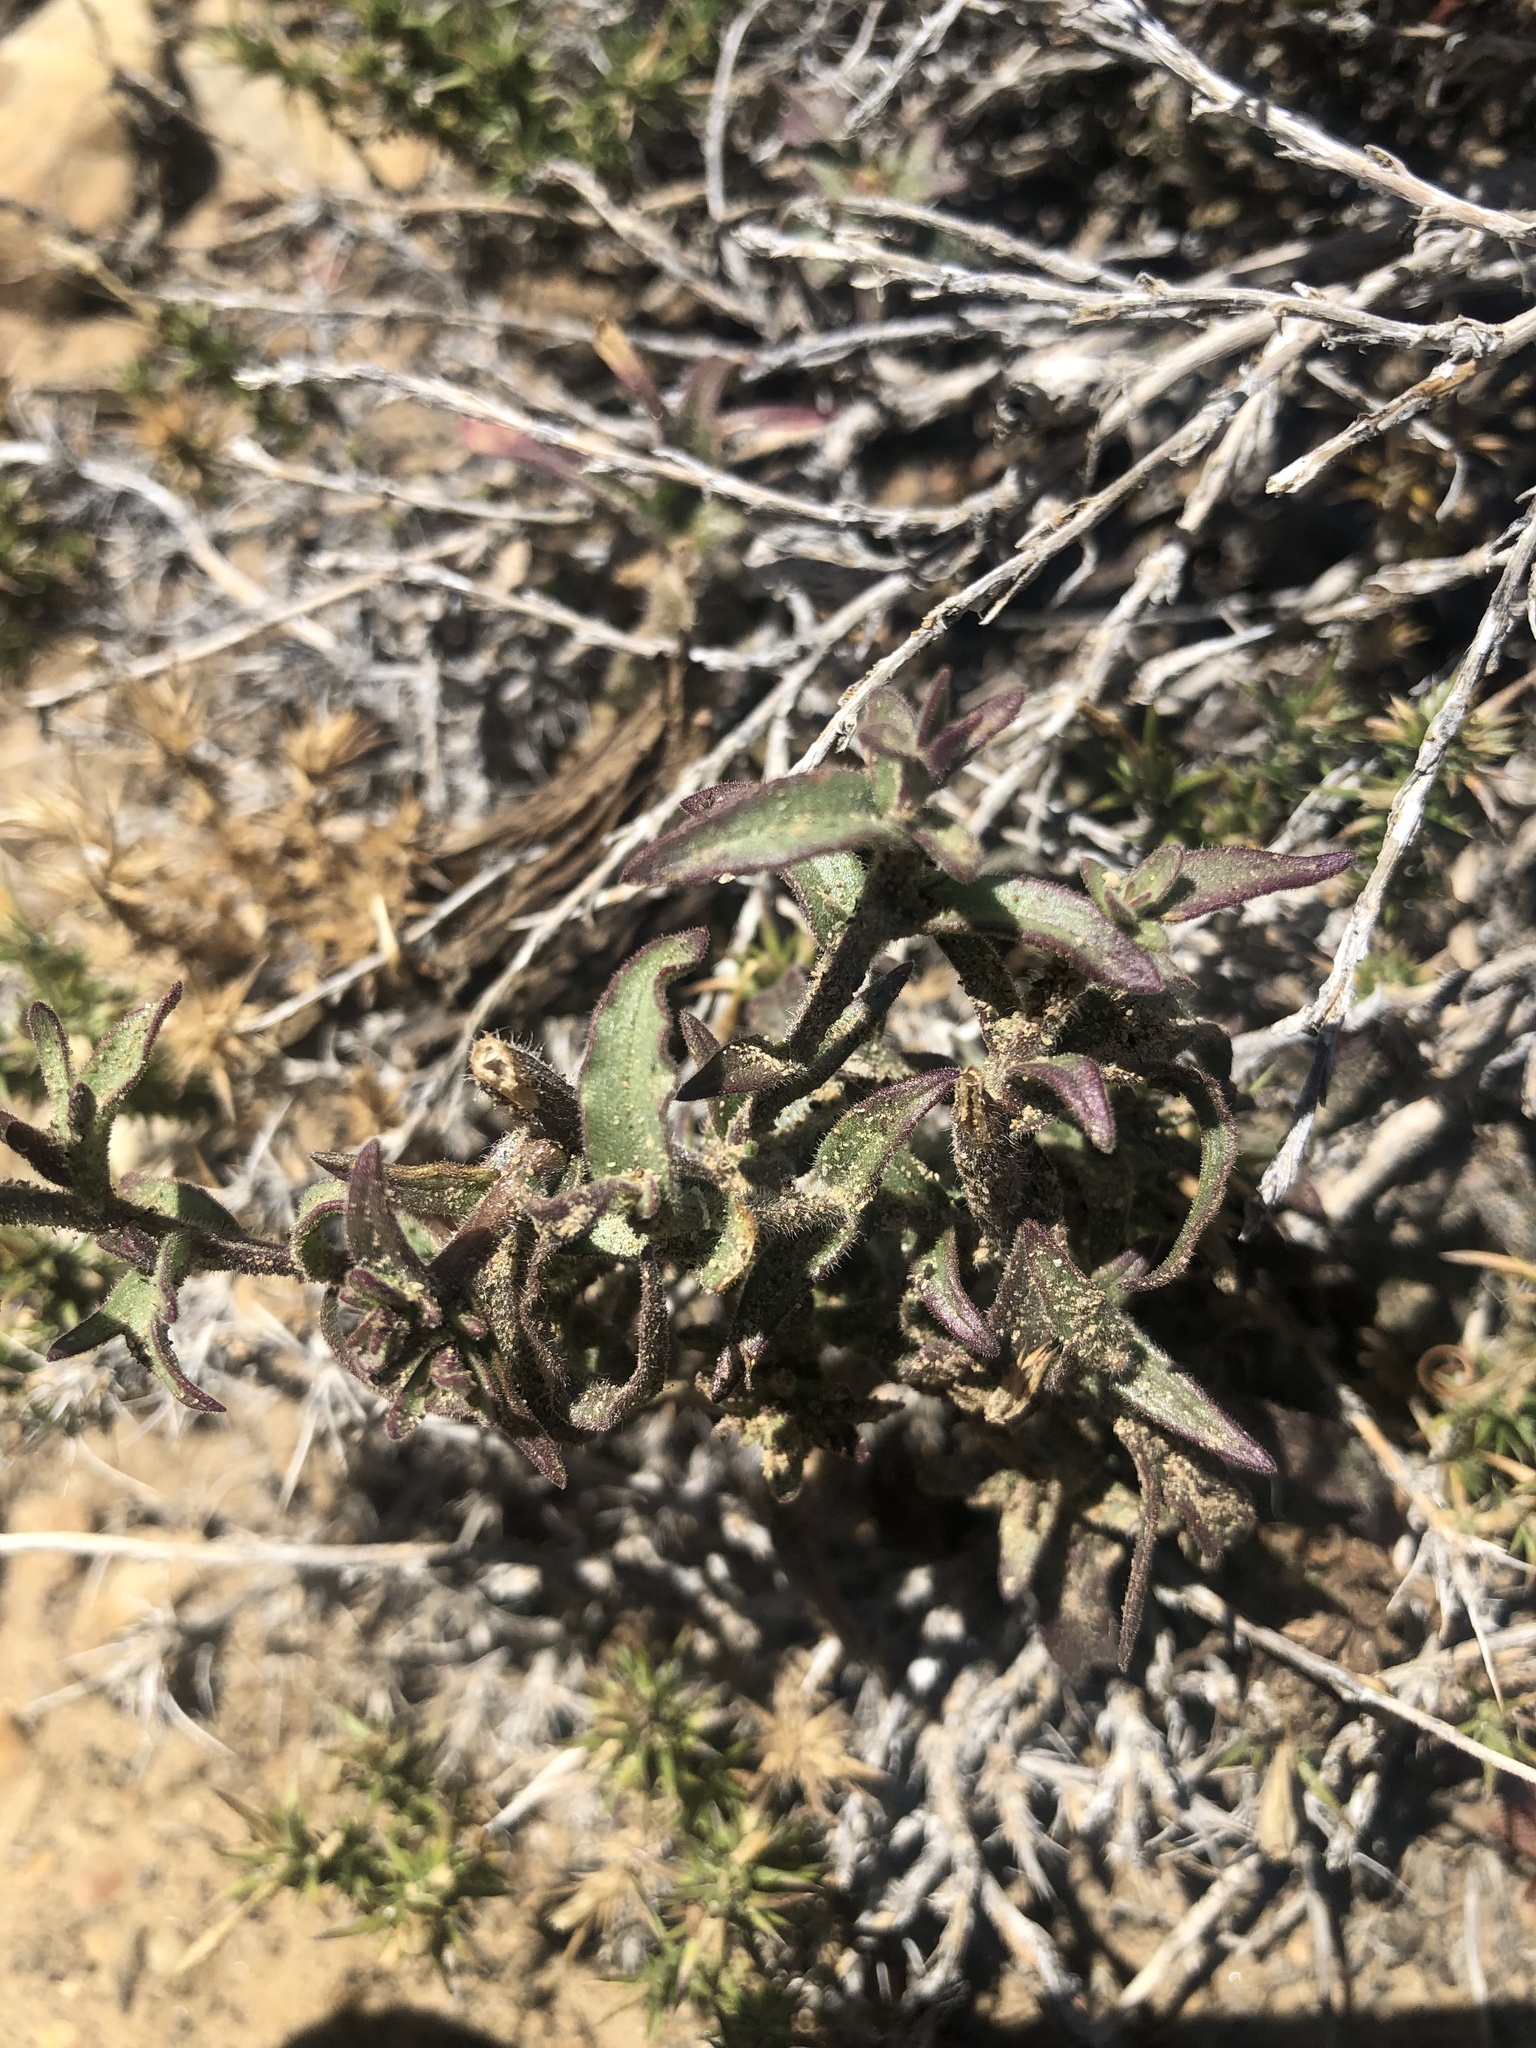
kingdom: Plantae
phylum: Tracheophyta
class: Magnoliopsida
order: Lamiales
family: Orobanchaceae
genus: Castilleja
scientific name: Castilleja applegatei
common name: Wavy-leaf paintbrush
